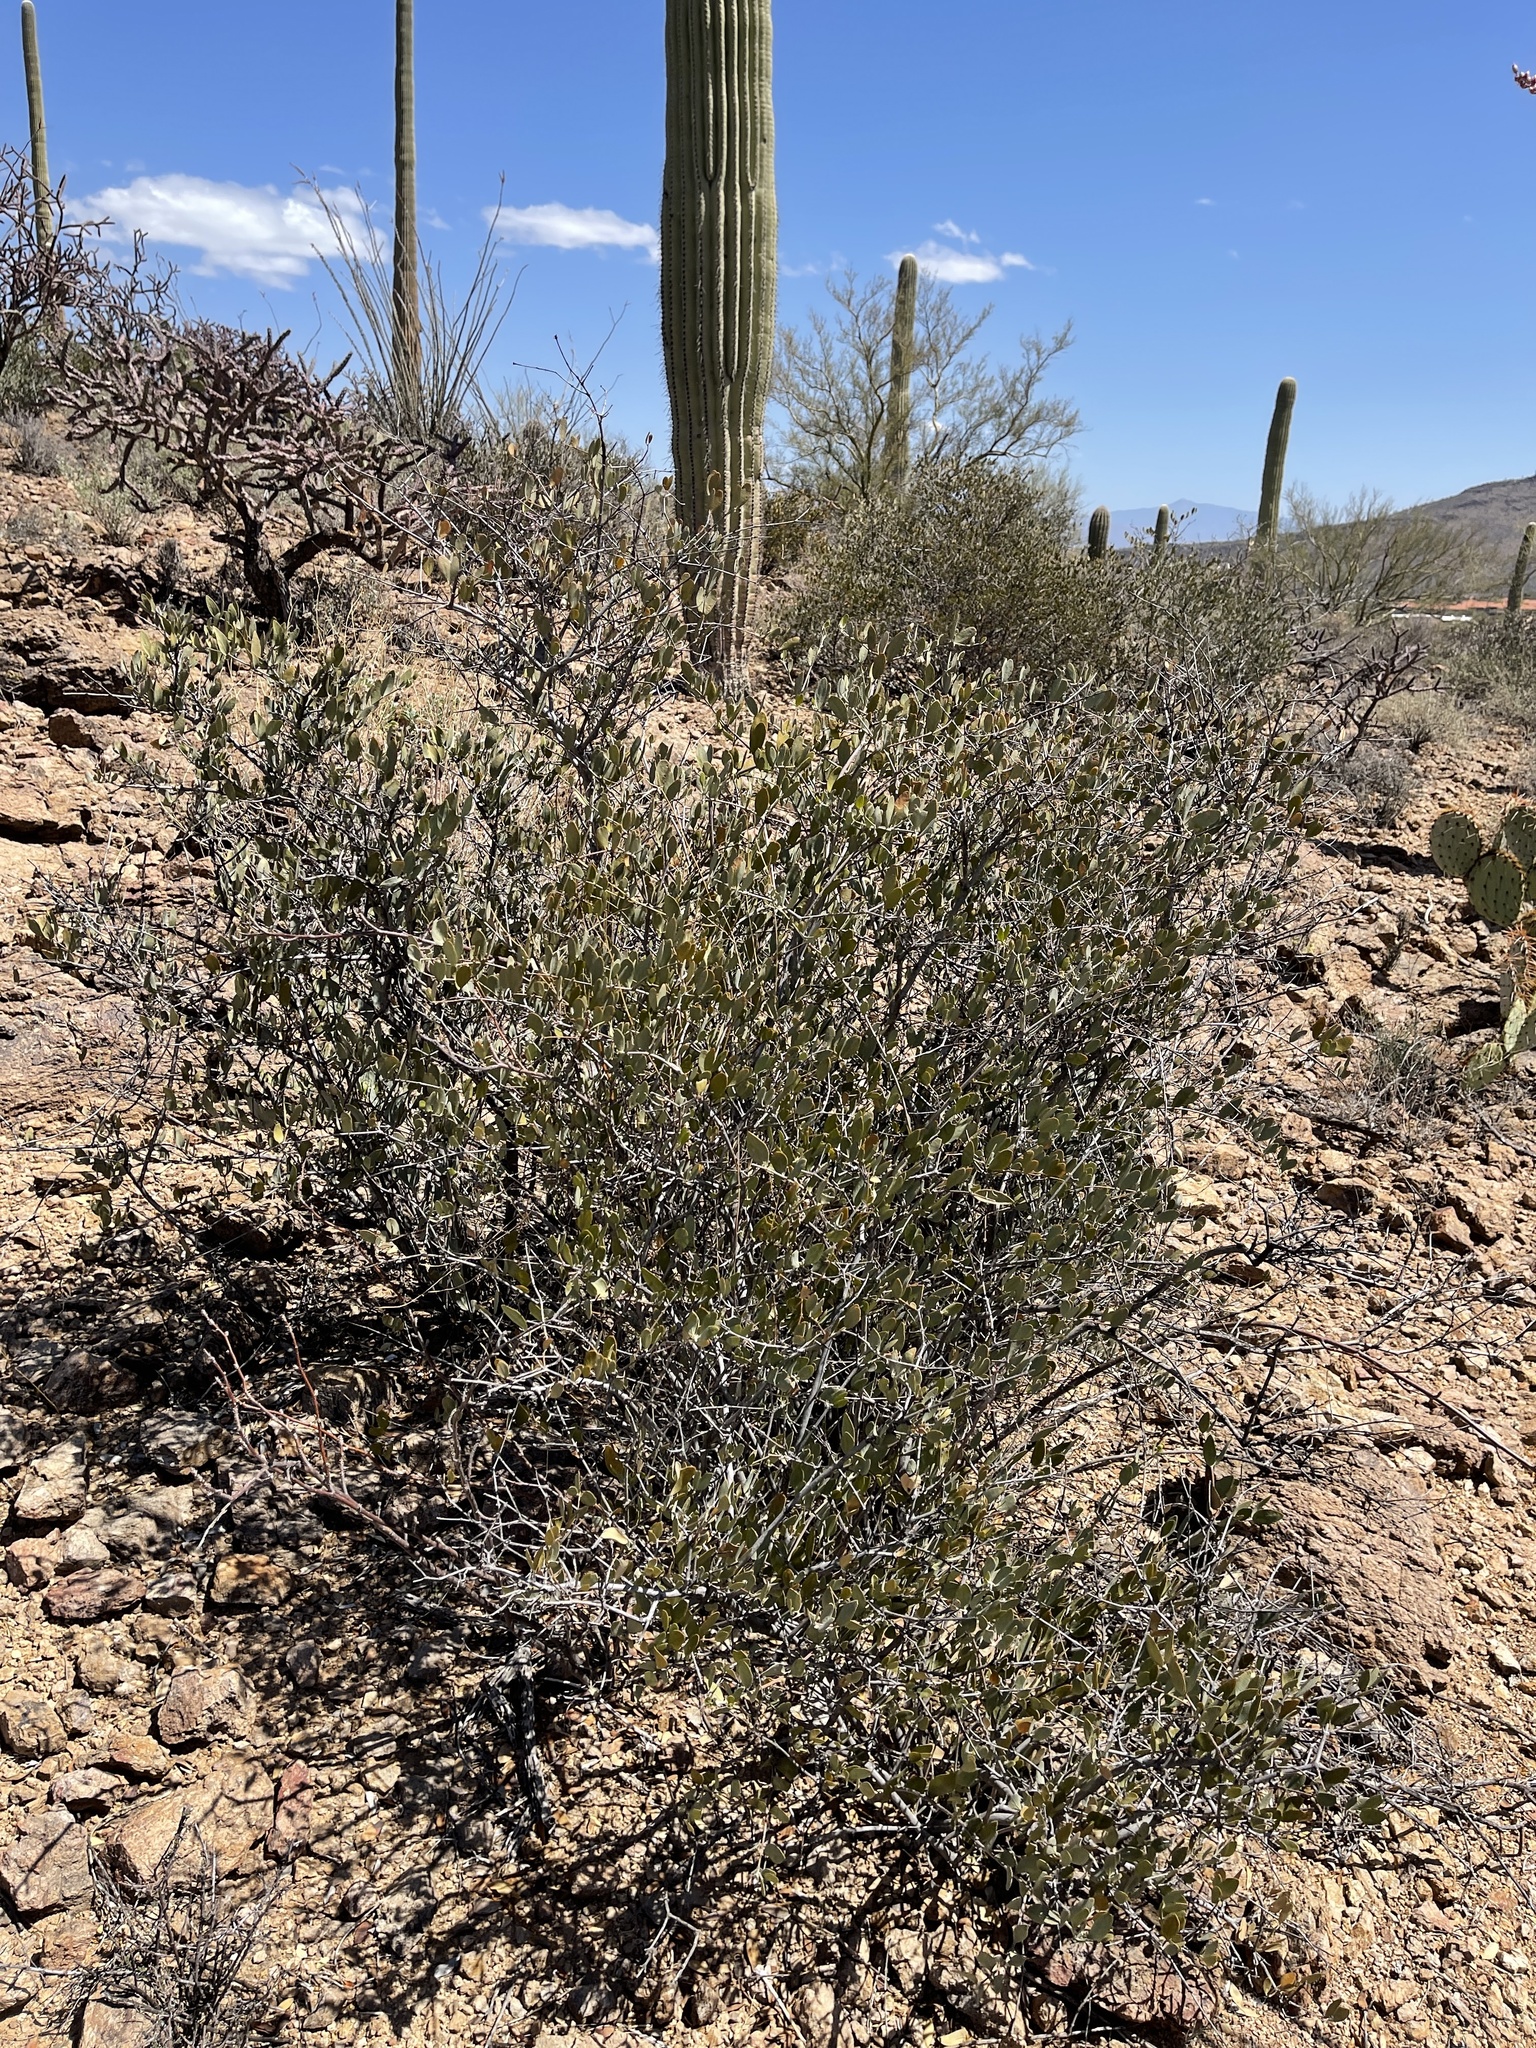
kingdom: Plantae
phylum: Tracheophyta
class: Magnoliopsida
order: Caryophyllales
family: Simmondsiaceae
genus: Simmondsia
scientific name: Simmondsia chinensis
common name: Jojoba
